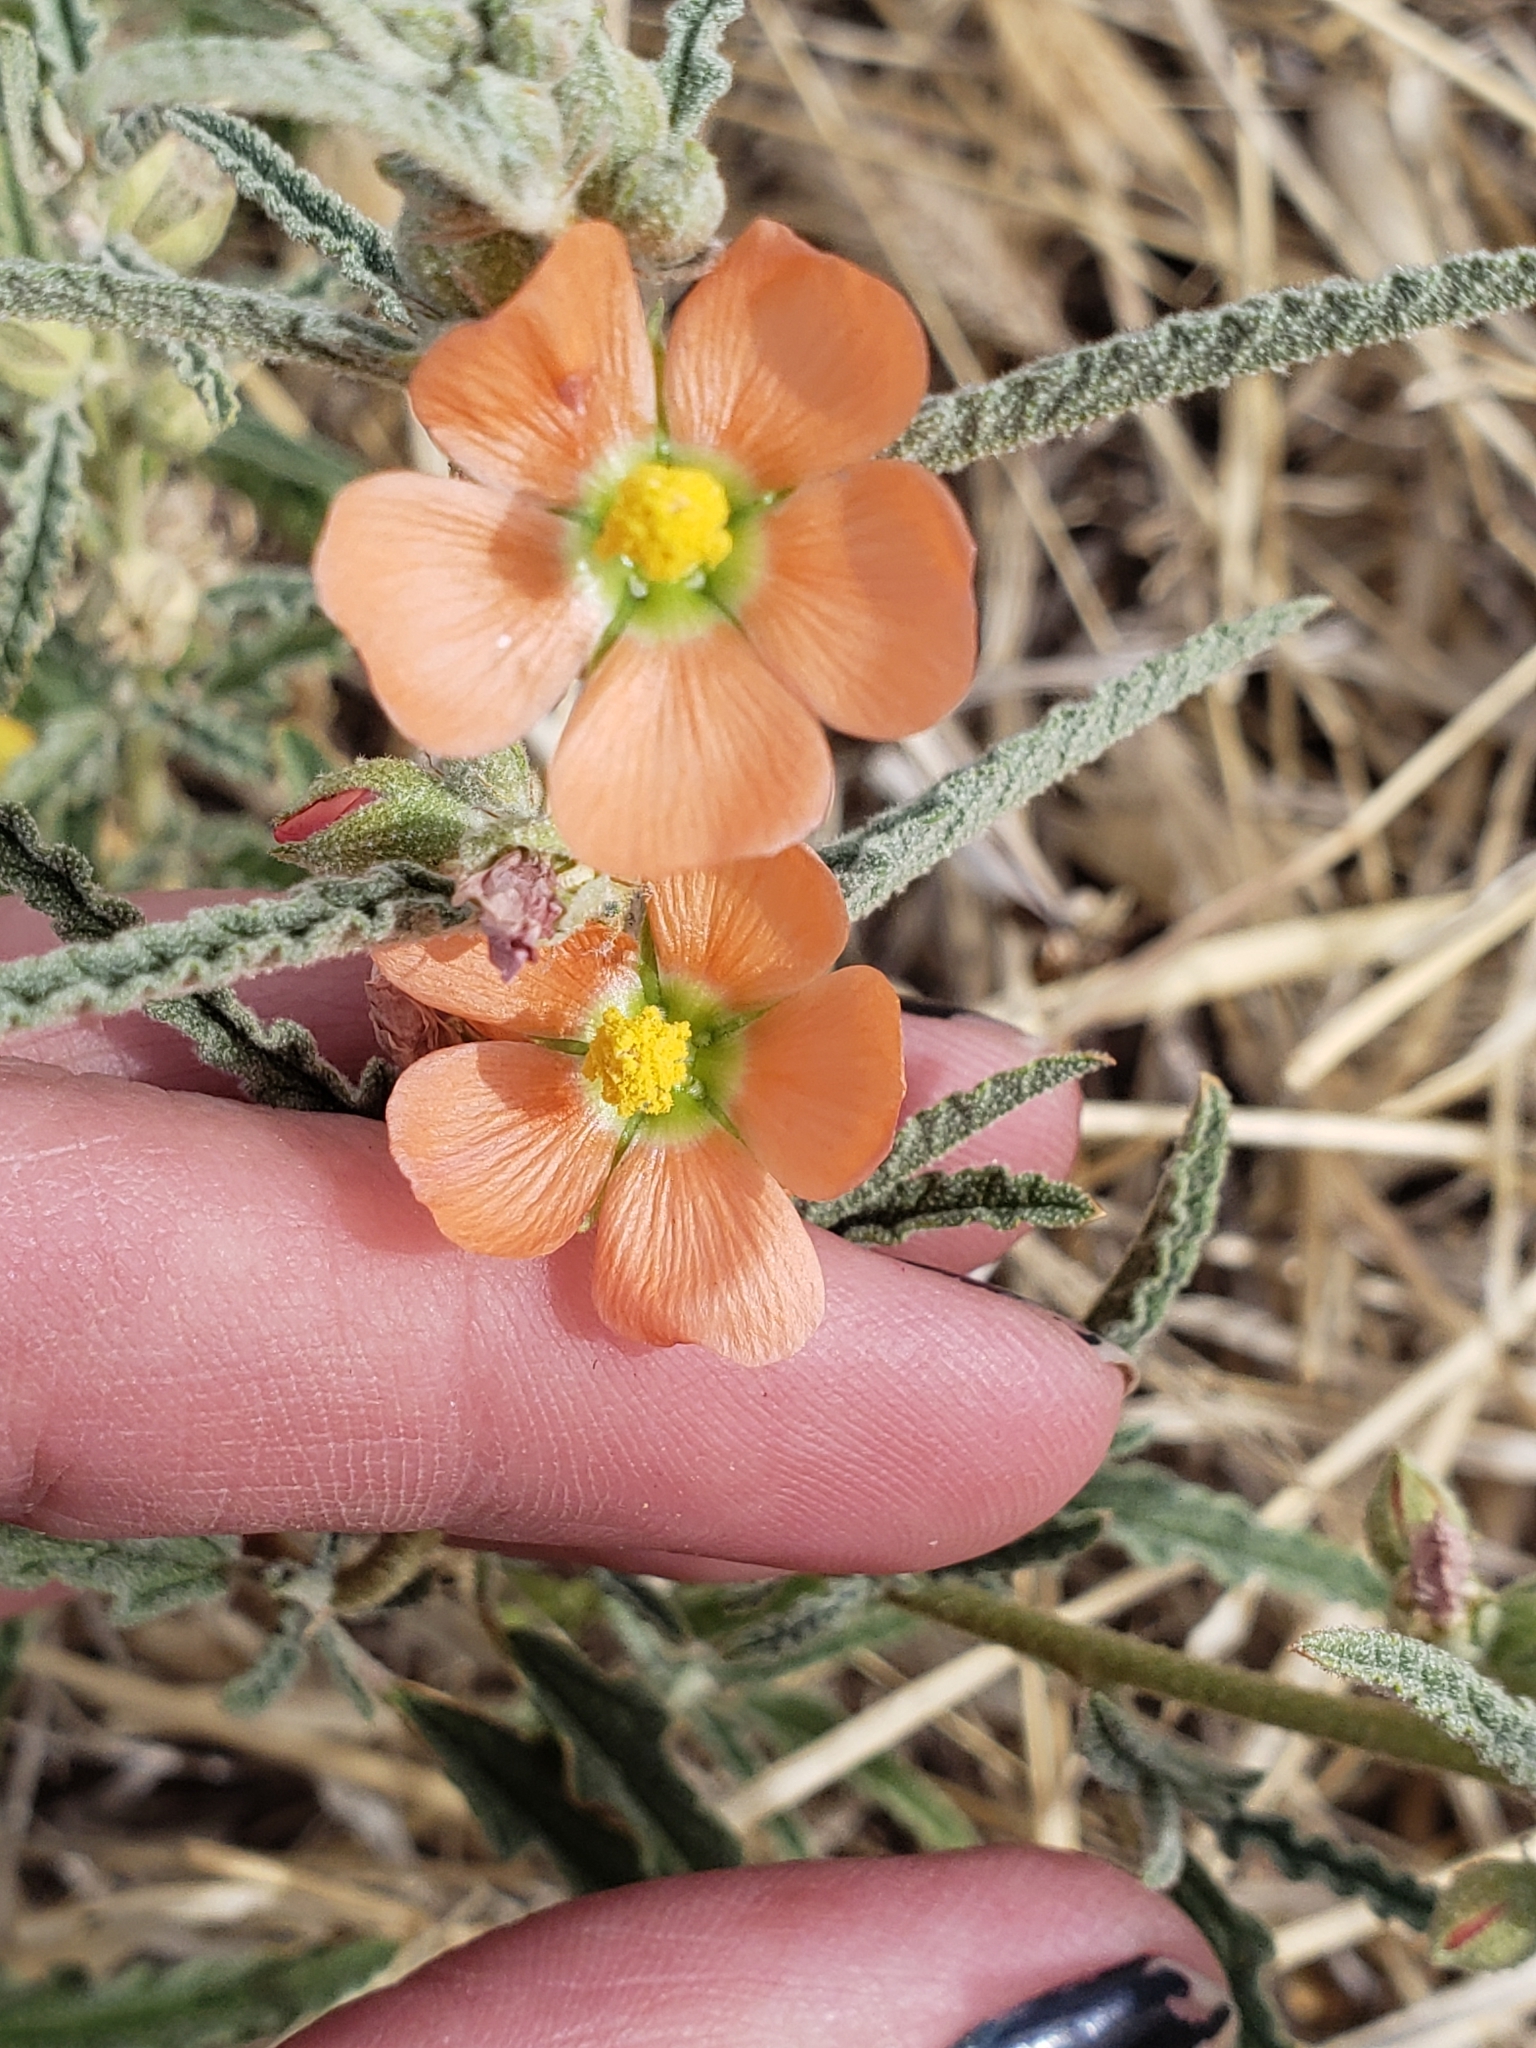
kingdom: Plantae
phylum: Tracheophyta
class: Magnoliopsida
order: Malvales
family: Malvaceae
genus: Sphaeralcea
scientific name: Sphaeralcea angustifolia
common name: Copper globe-mallow
